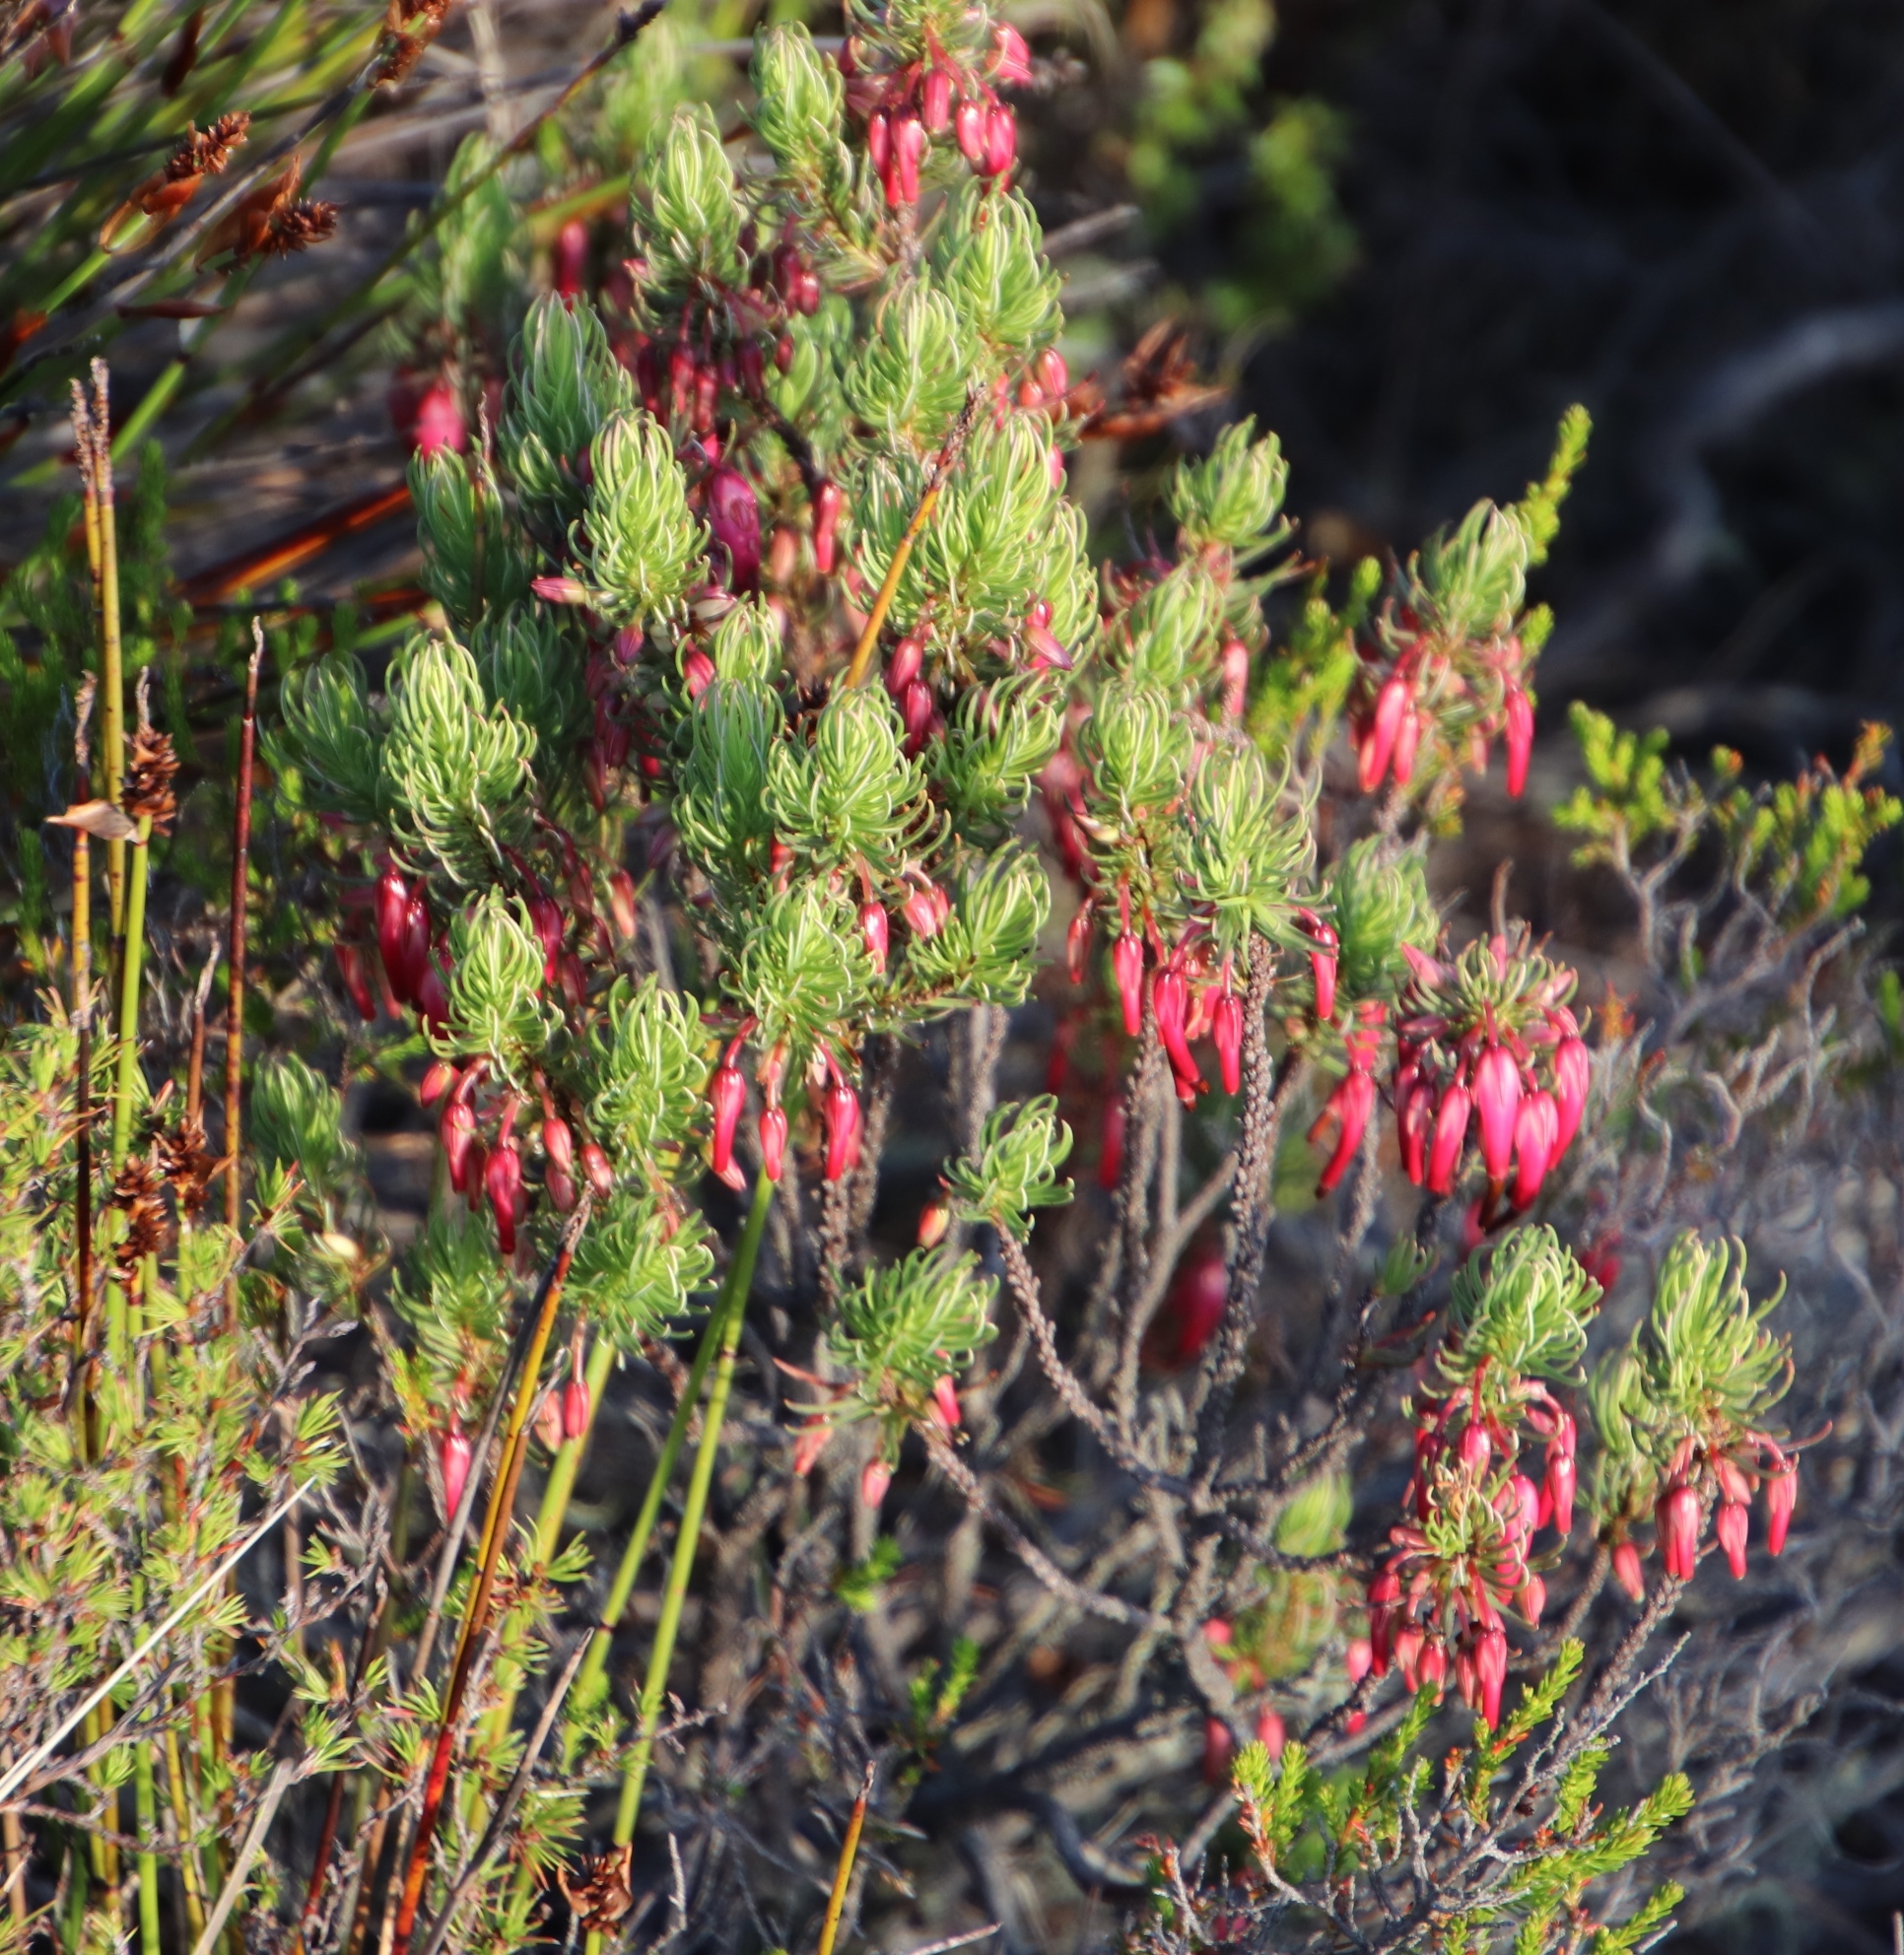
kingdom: Plantae
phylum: Tracheophyta
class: Magnoliopsida
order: Ericales
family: Ericaceae
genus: Erica
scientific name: Erica plukenetii
